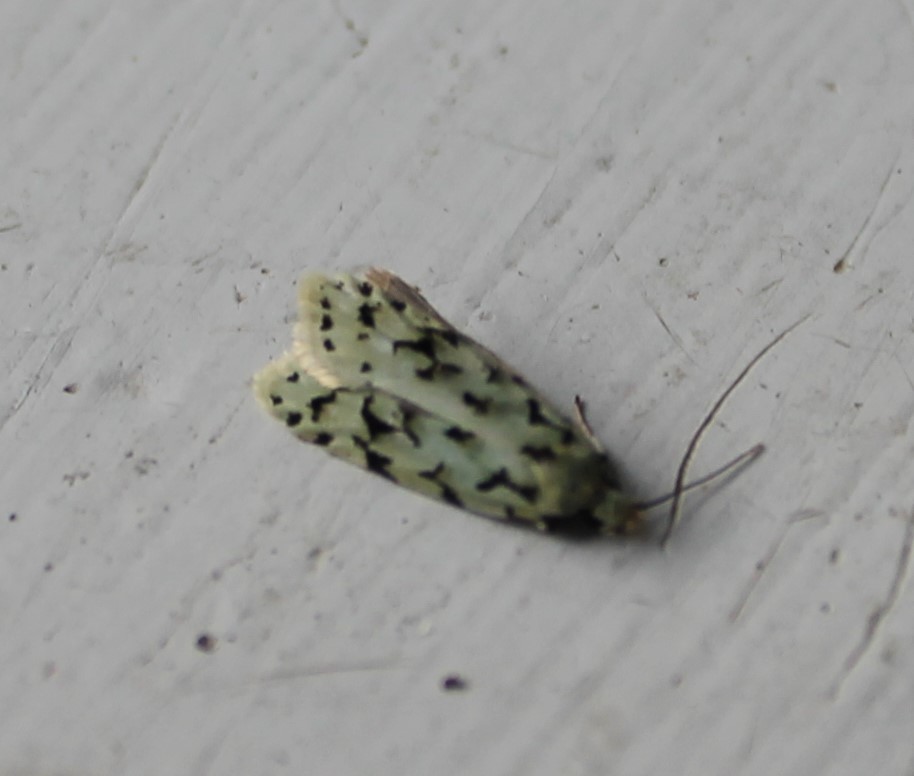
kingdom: Animalia
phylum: Arthropoda
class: Insecta
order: Lepidoptera
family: Oecophoridae
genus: Izatha
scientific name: Izatha peroneanella
